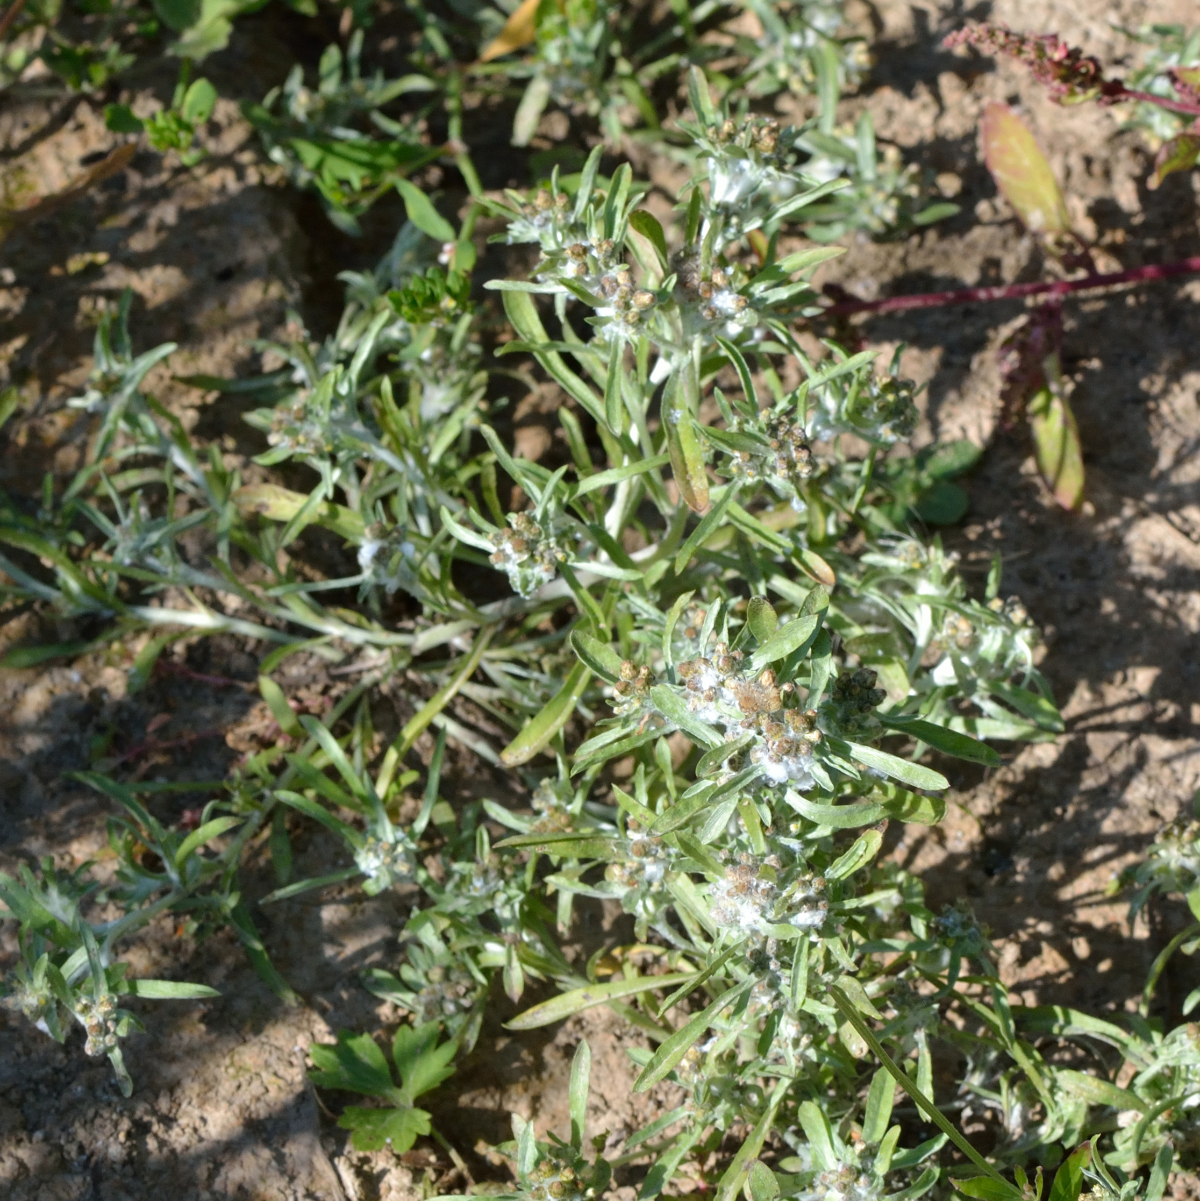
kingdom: Plantae
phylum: Tracheophyta
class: Magnoliopsida
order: Asterales
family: Asteraceae
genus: Gnaphalium
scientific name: Gnaphalium uliginosum
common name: Marsh cudweed
